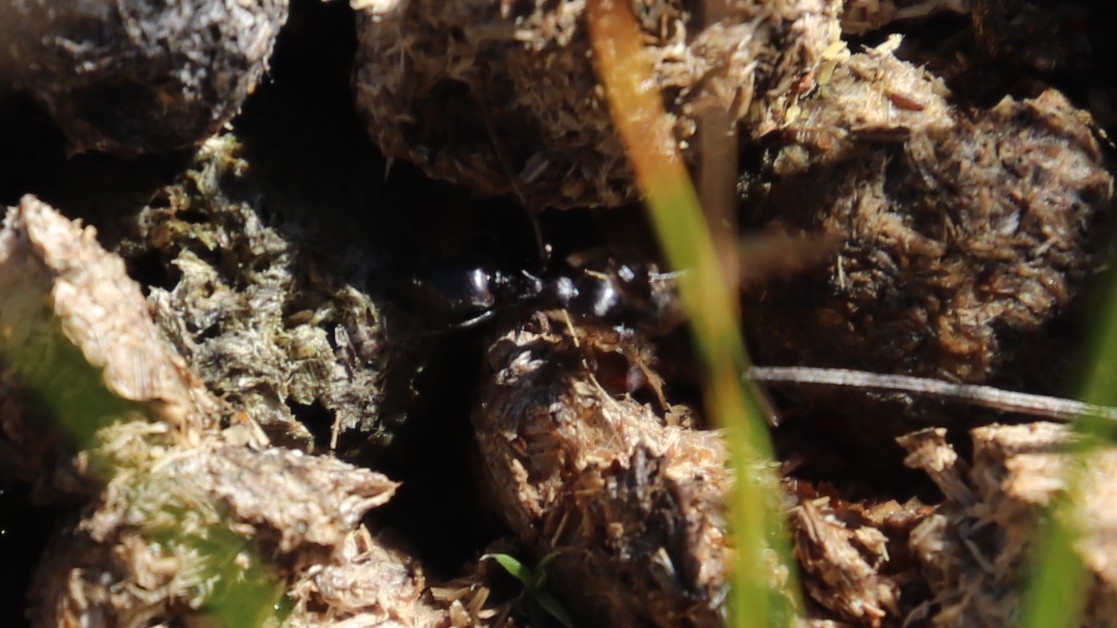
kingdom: Animalia
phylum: Arthropoda
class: Insecta
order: Hymenoptera
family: Formicidae
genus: Crematogaster
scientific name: Crematogaster peringueyi
